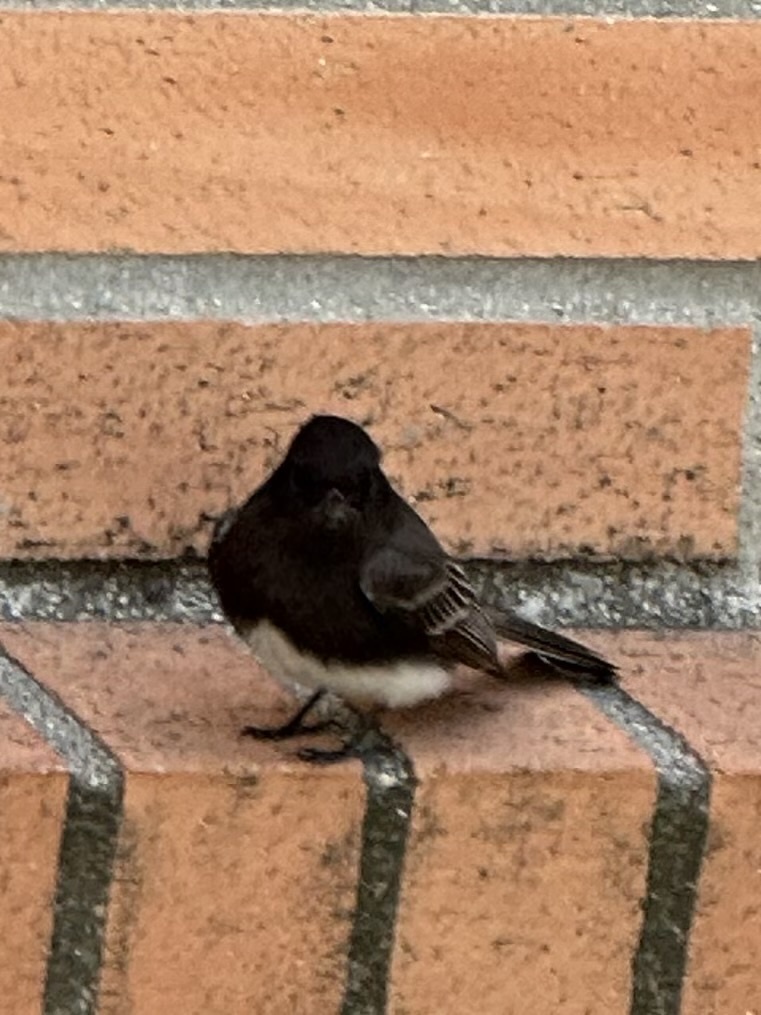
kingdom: Animalia
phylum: Chordata
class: Aves
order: Passeriformes
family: Tyrannidae
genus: Sayornis
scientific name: Sayornis nigricans
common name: Black phoebe
